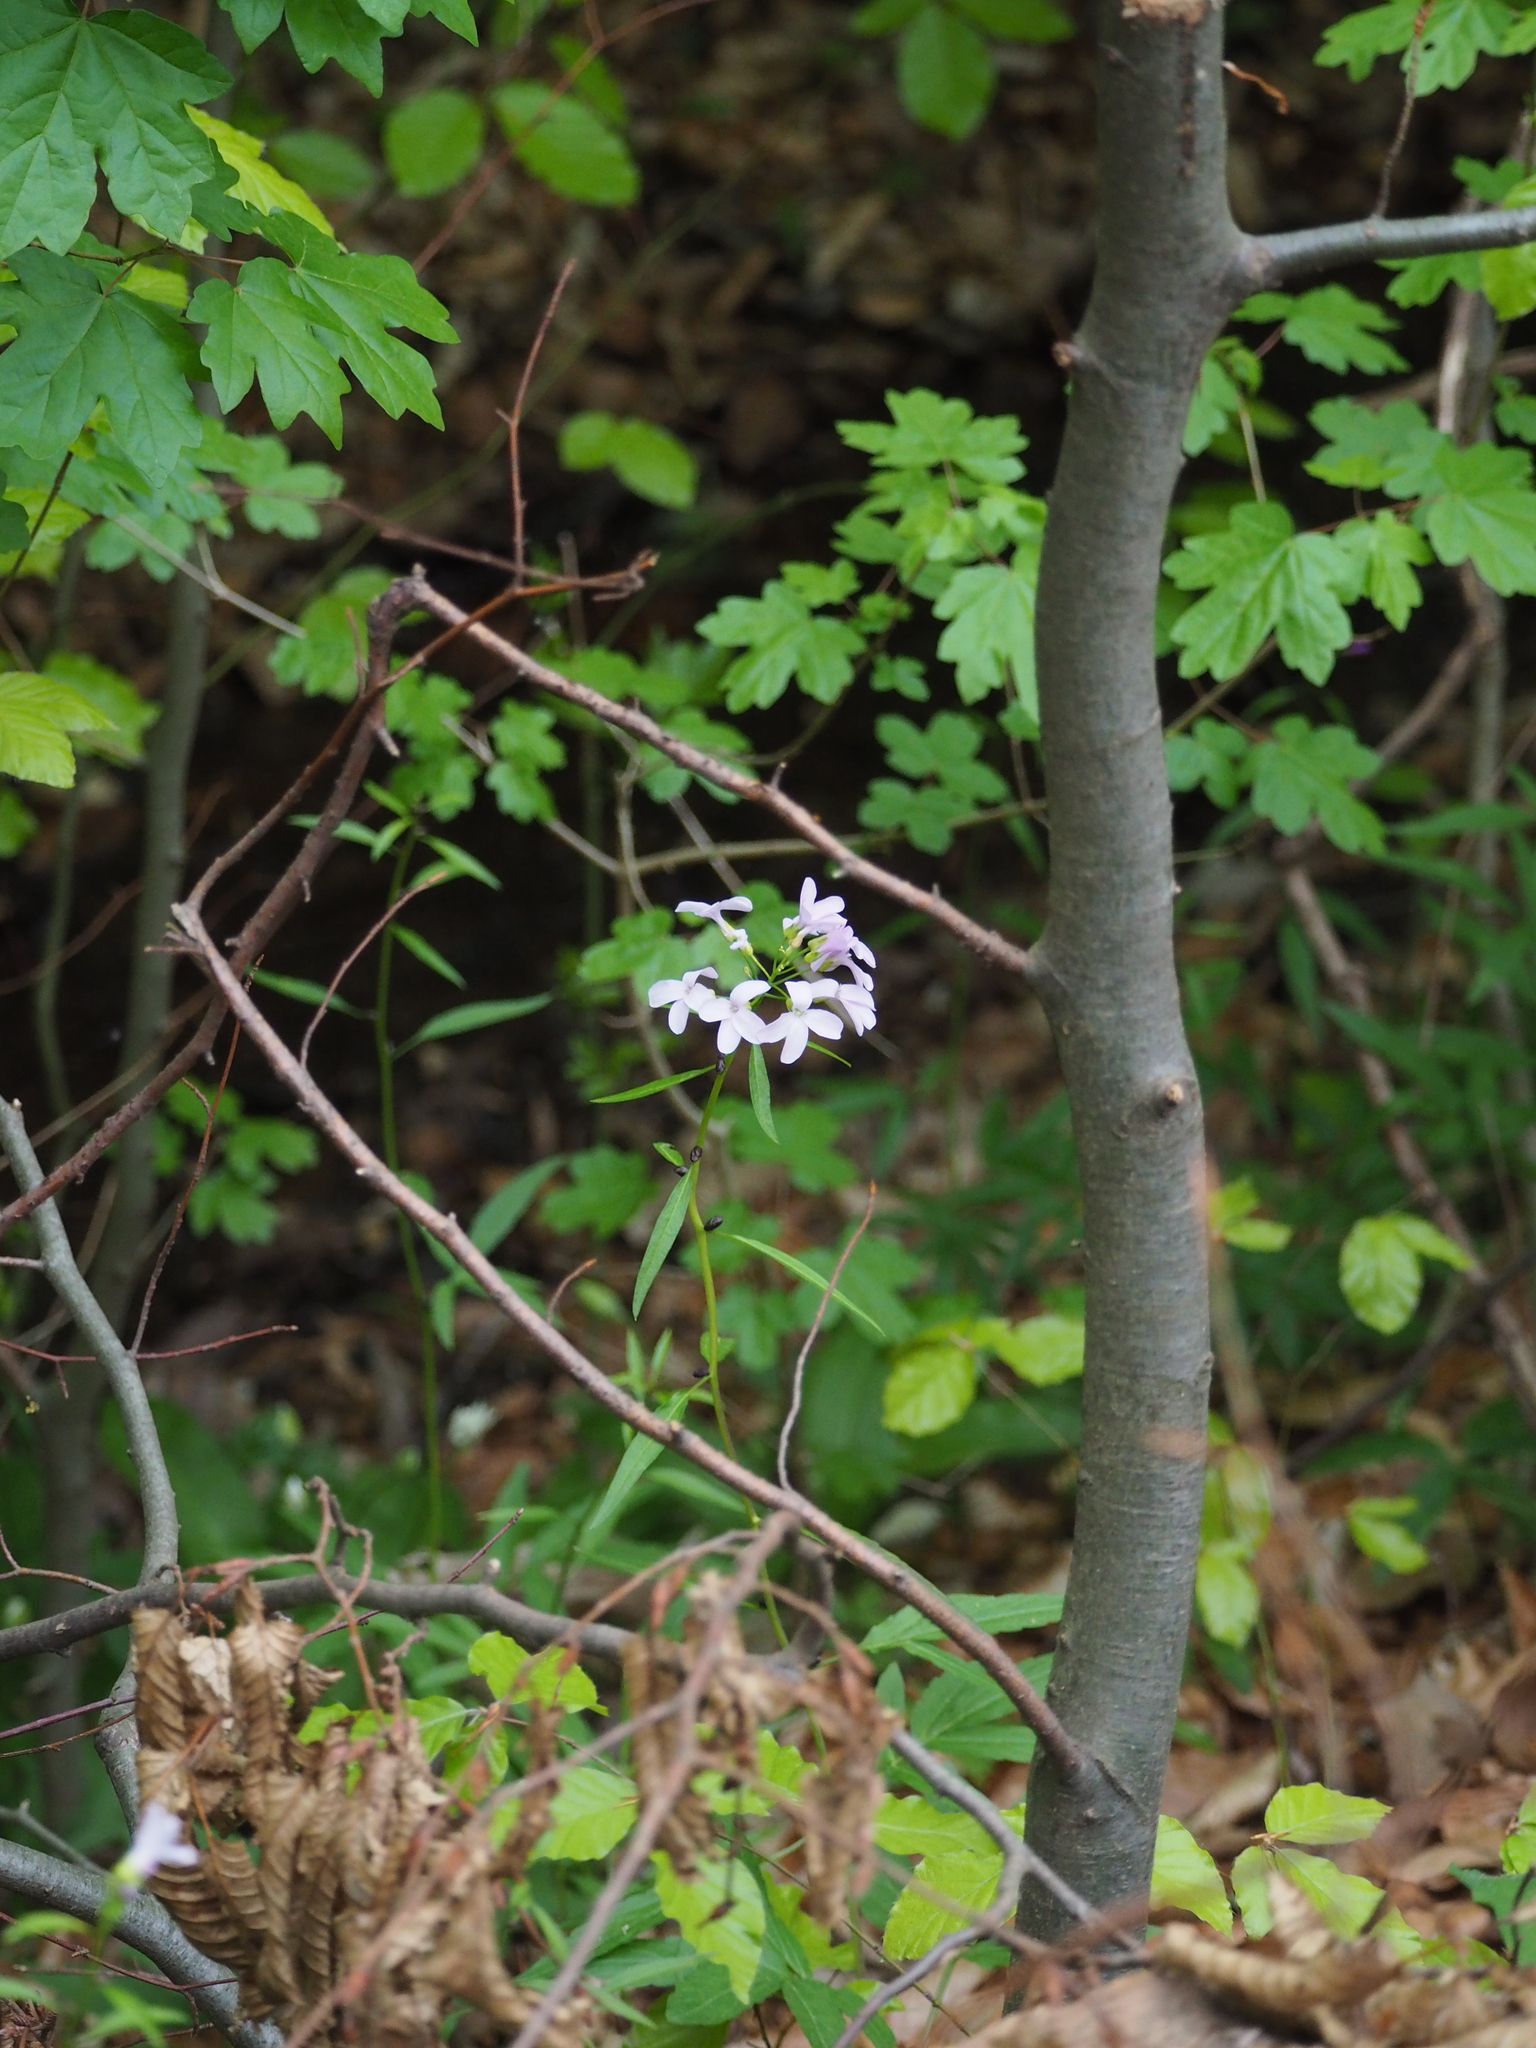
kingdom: Plantae
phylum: Tracheophyta
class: Magnoliopsida
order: Brassicales
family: Brassicaceae
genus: Cardamine
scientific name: Cardamine bulbifera
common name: Coralroot bittercress
